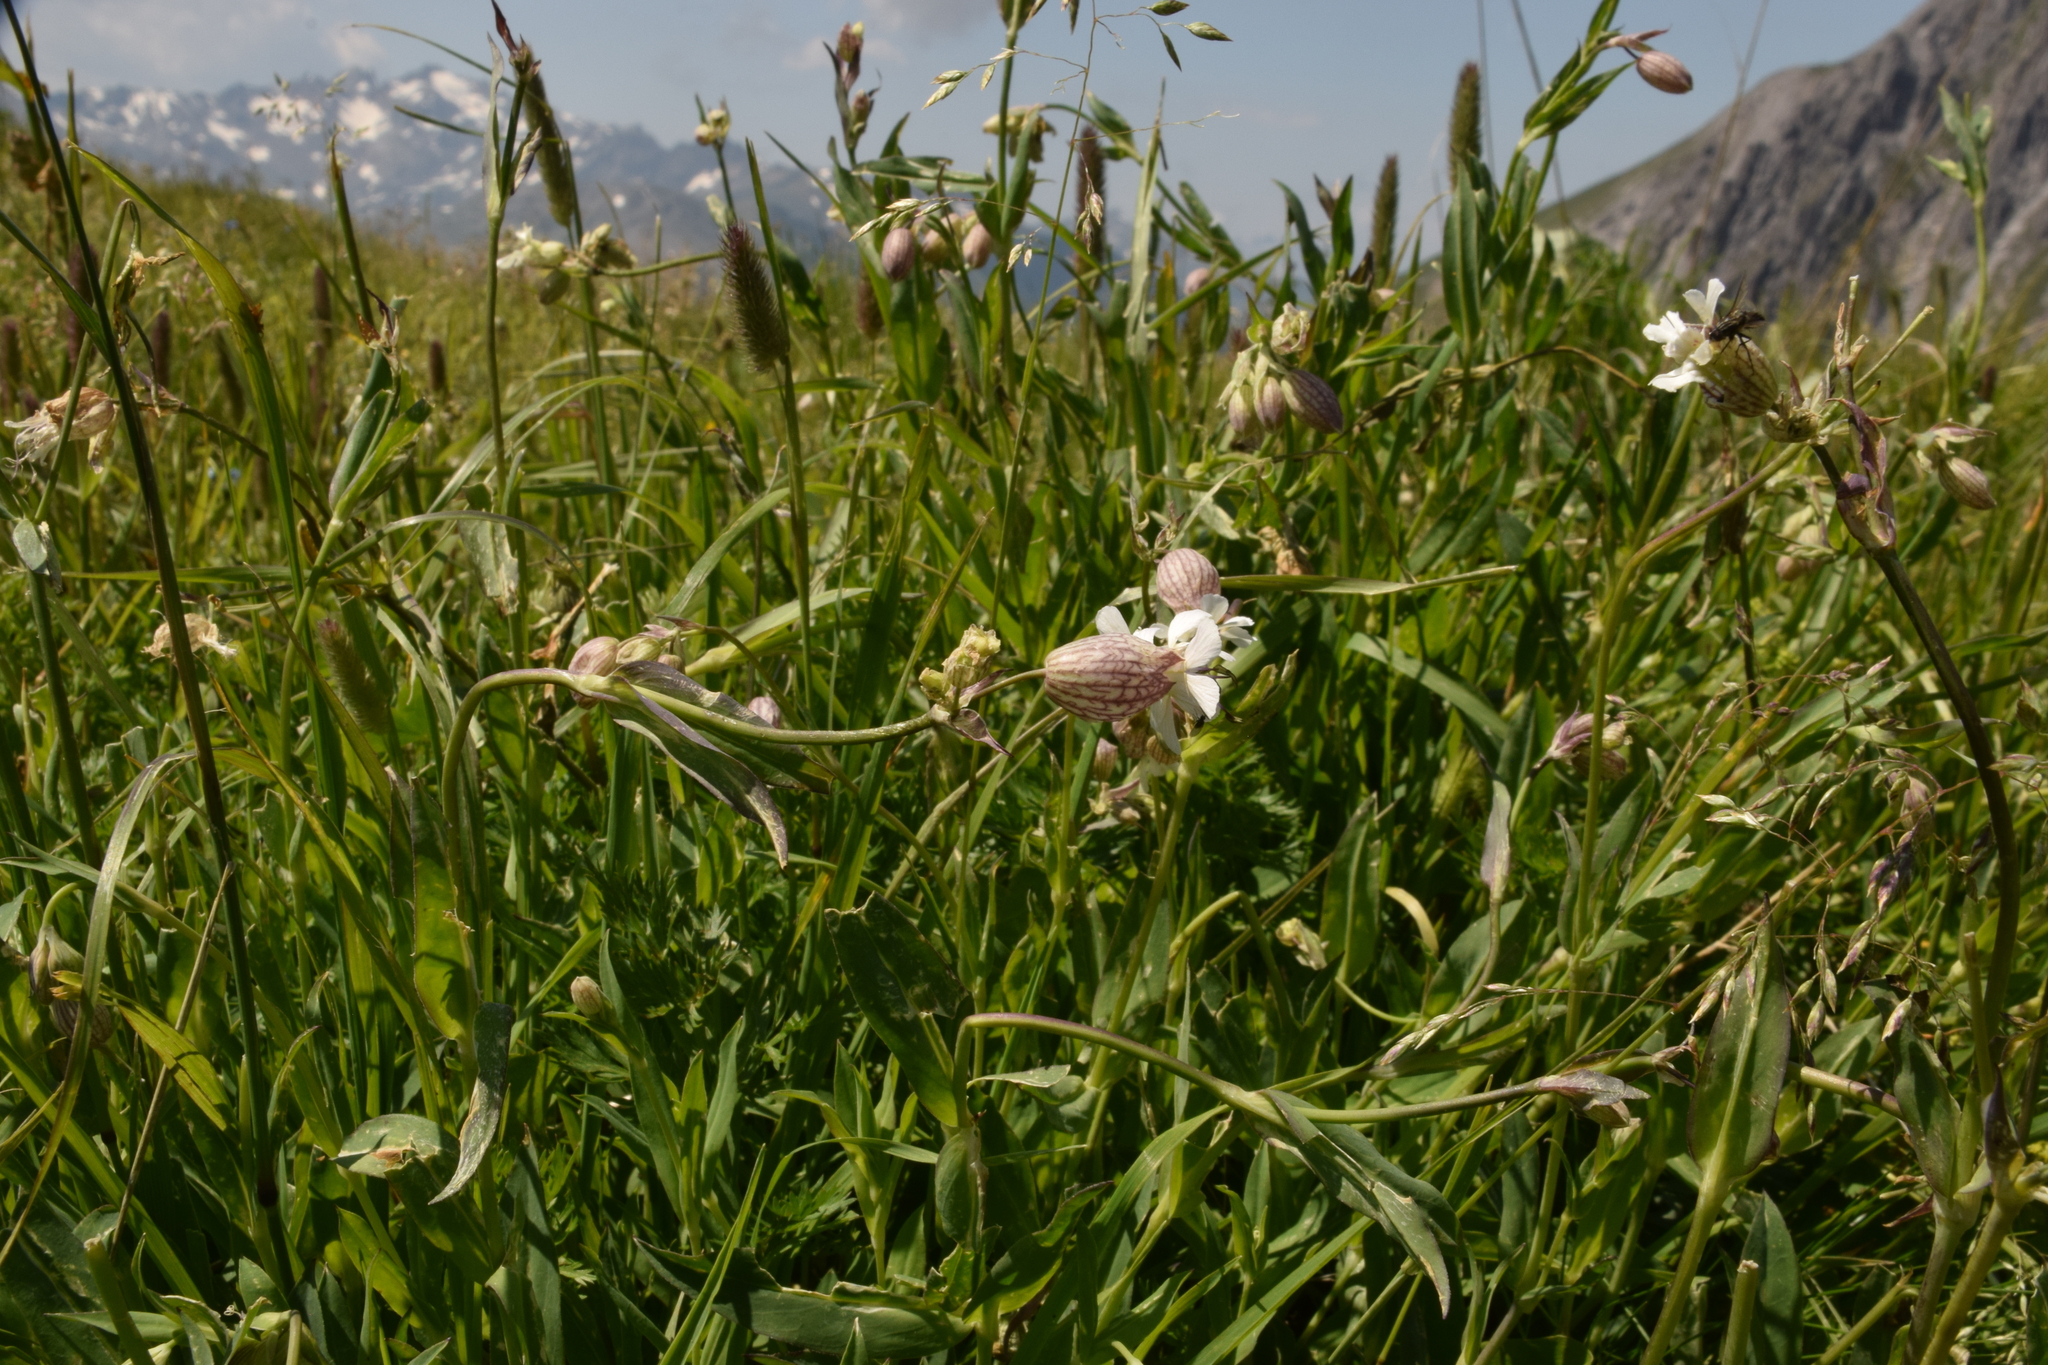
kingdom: Plantae
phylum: Tracheophyta
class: Magnoliopsida
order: Caryophyllales
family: Caryophyllaceae
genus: Silene
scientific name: Silene vulgaris
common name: Bladder campion
